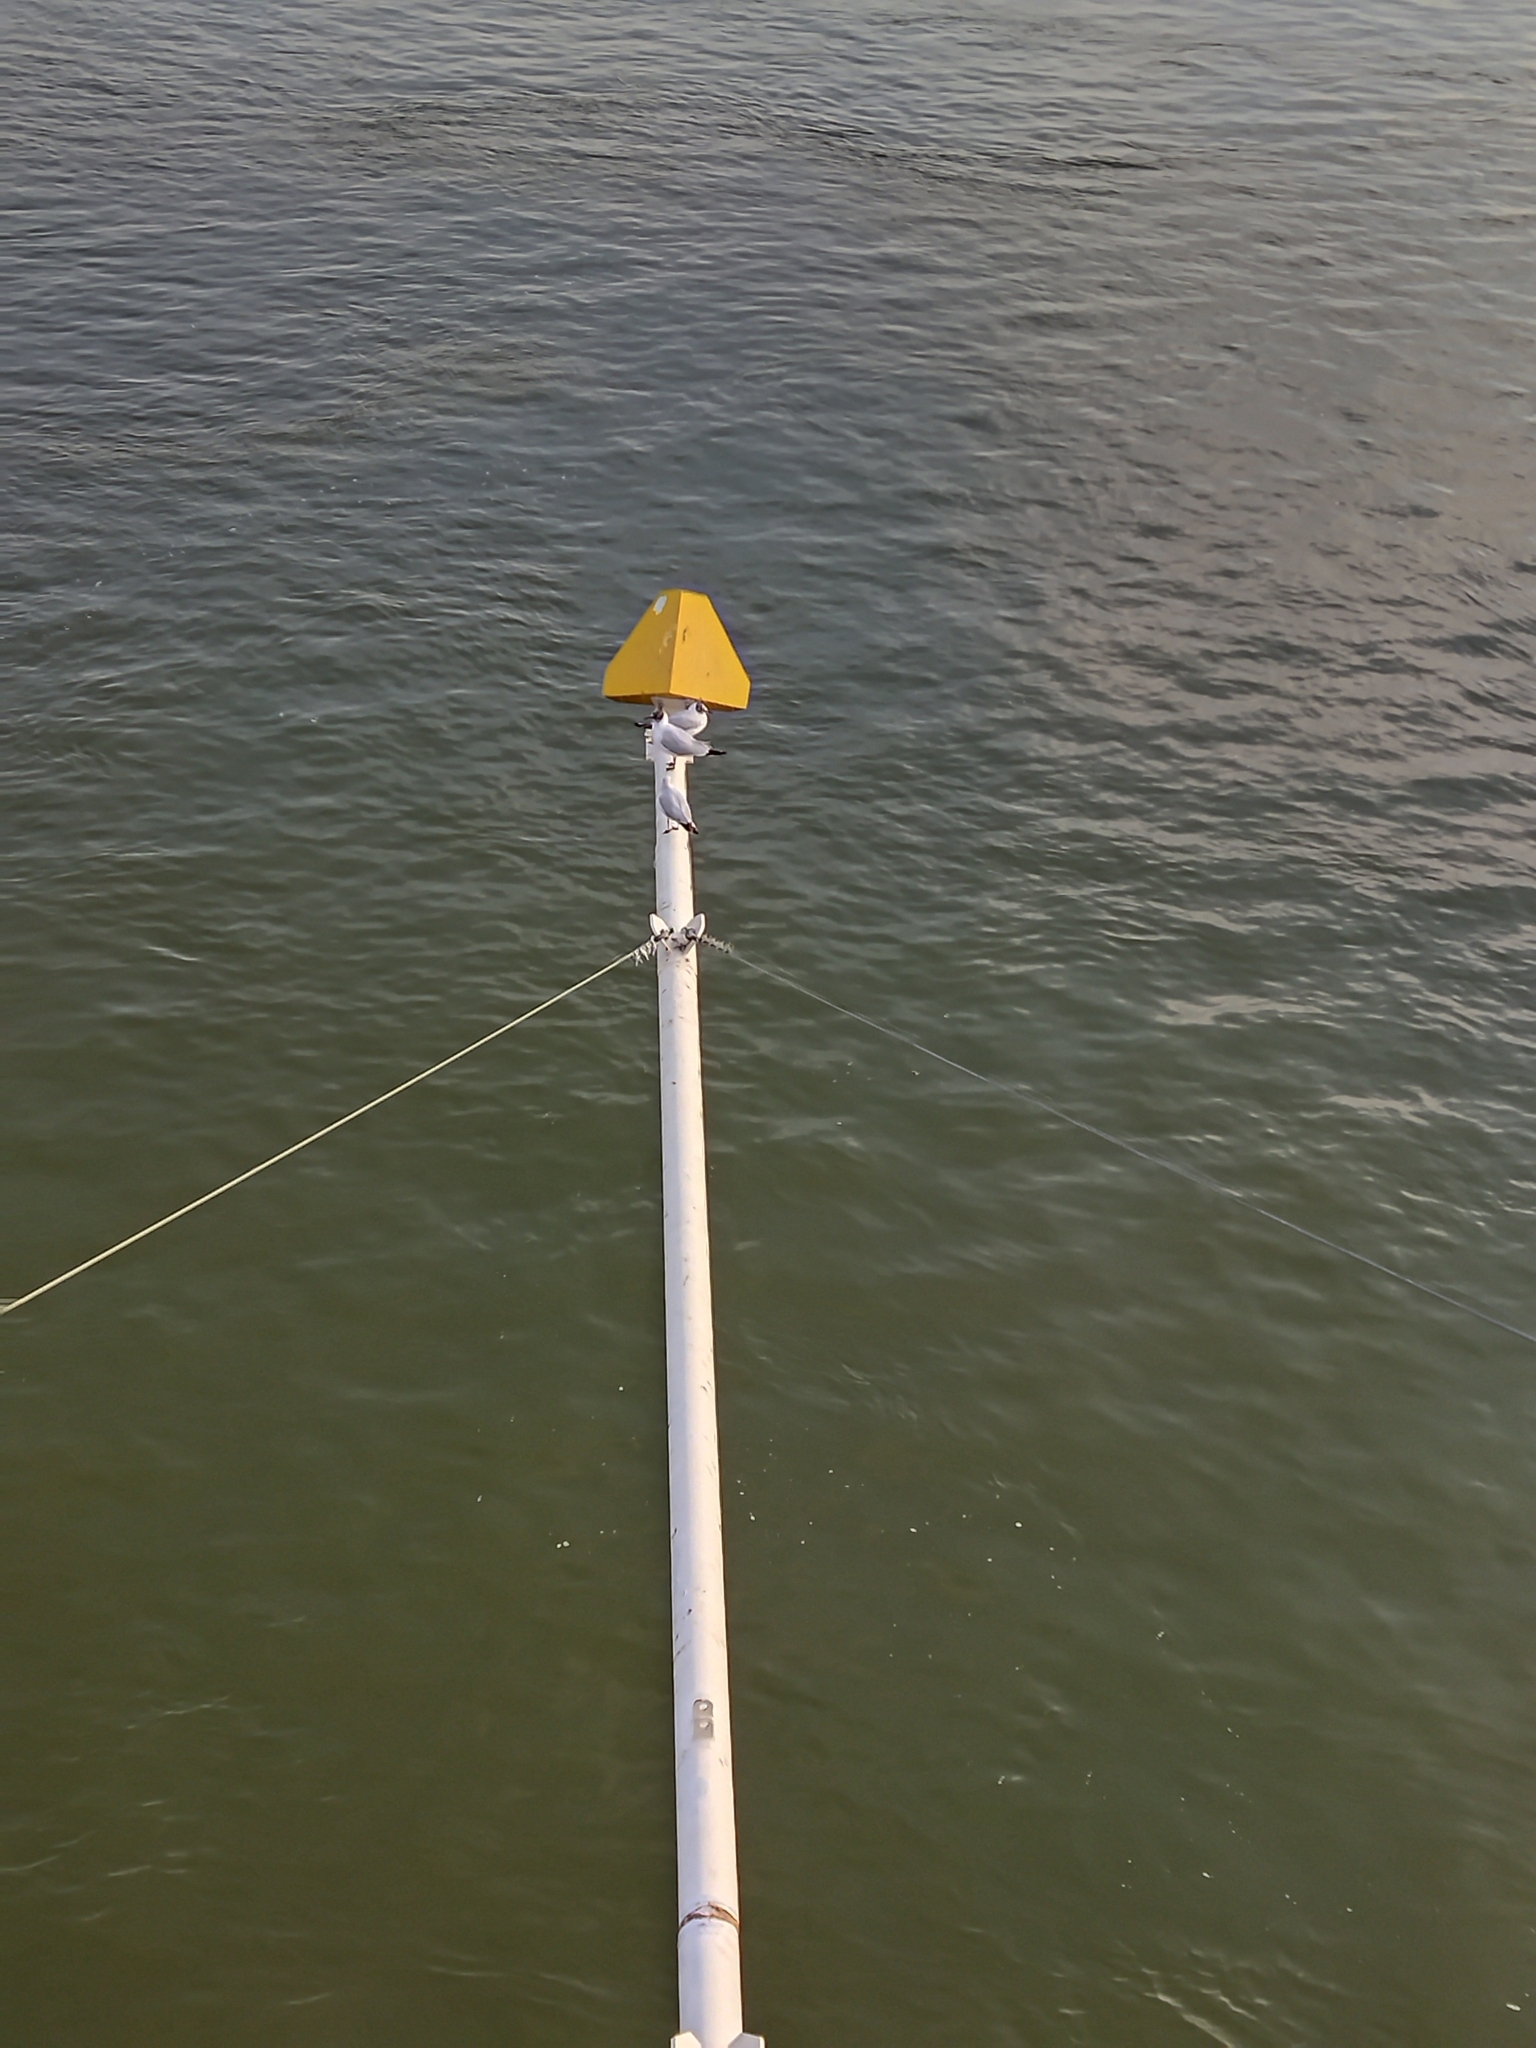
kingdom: Animalia
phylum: Chordata
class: Aves
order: Charadriiformes
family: Laridae
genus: Chroicocephalus
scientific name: Chroicocephalus ridibundus
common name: Black-headed gull
